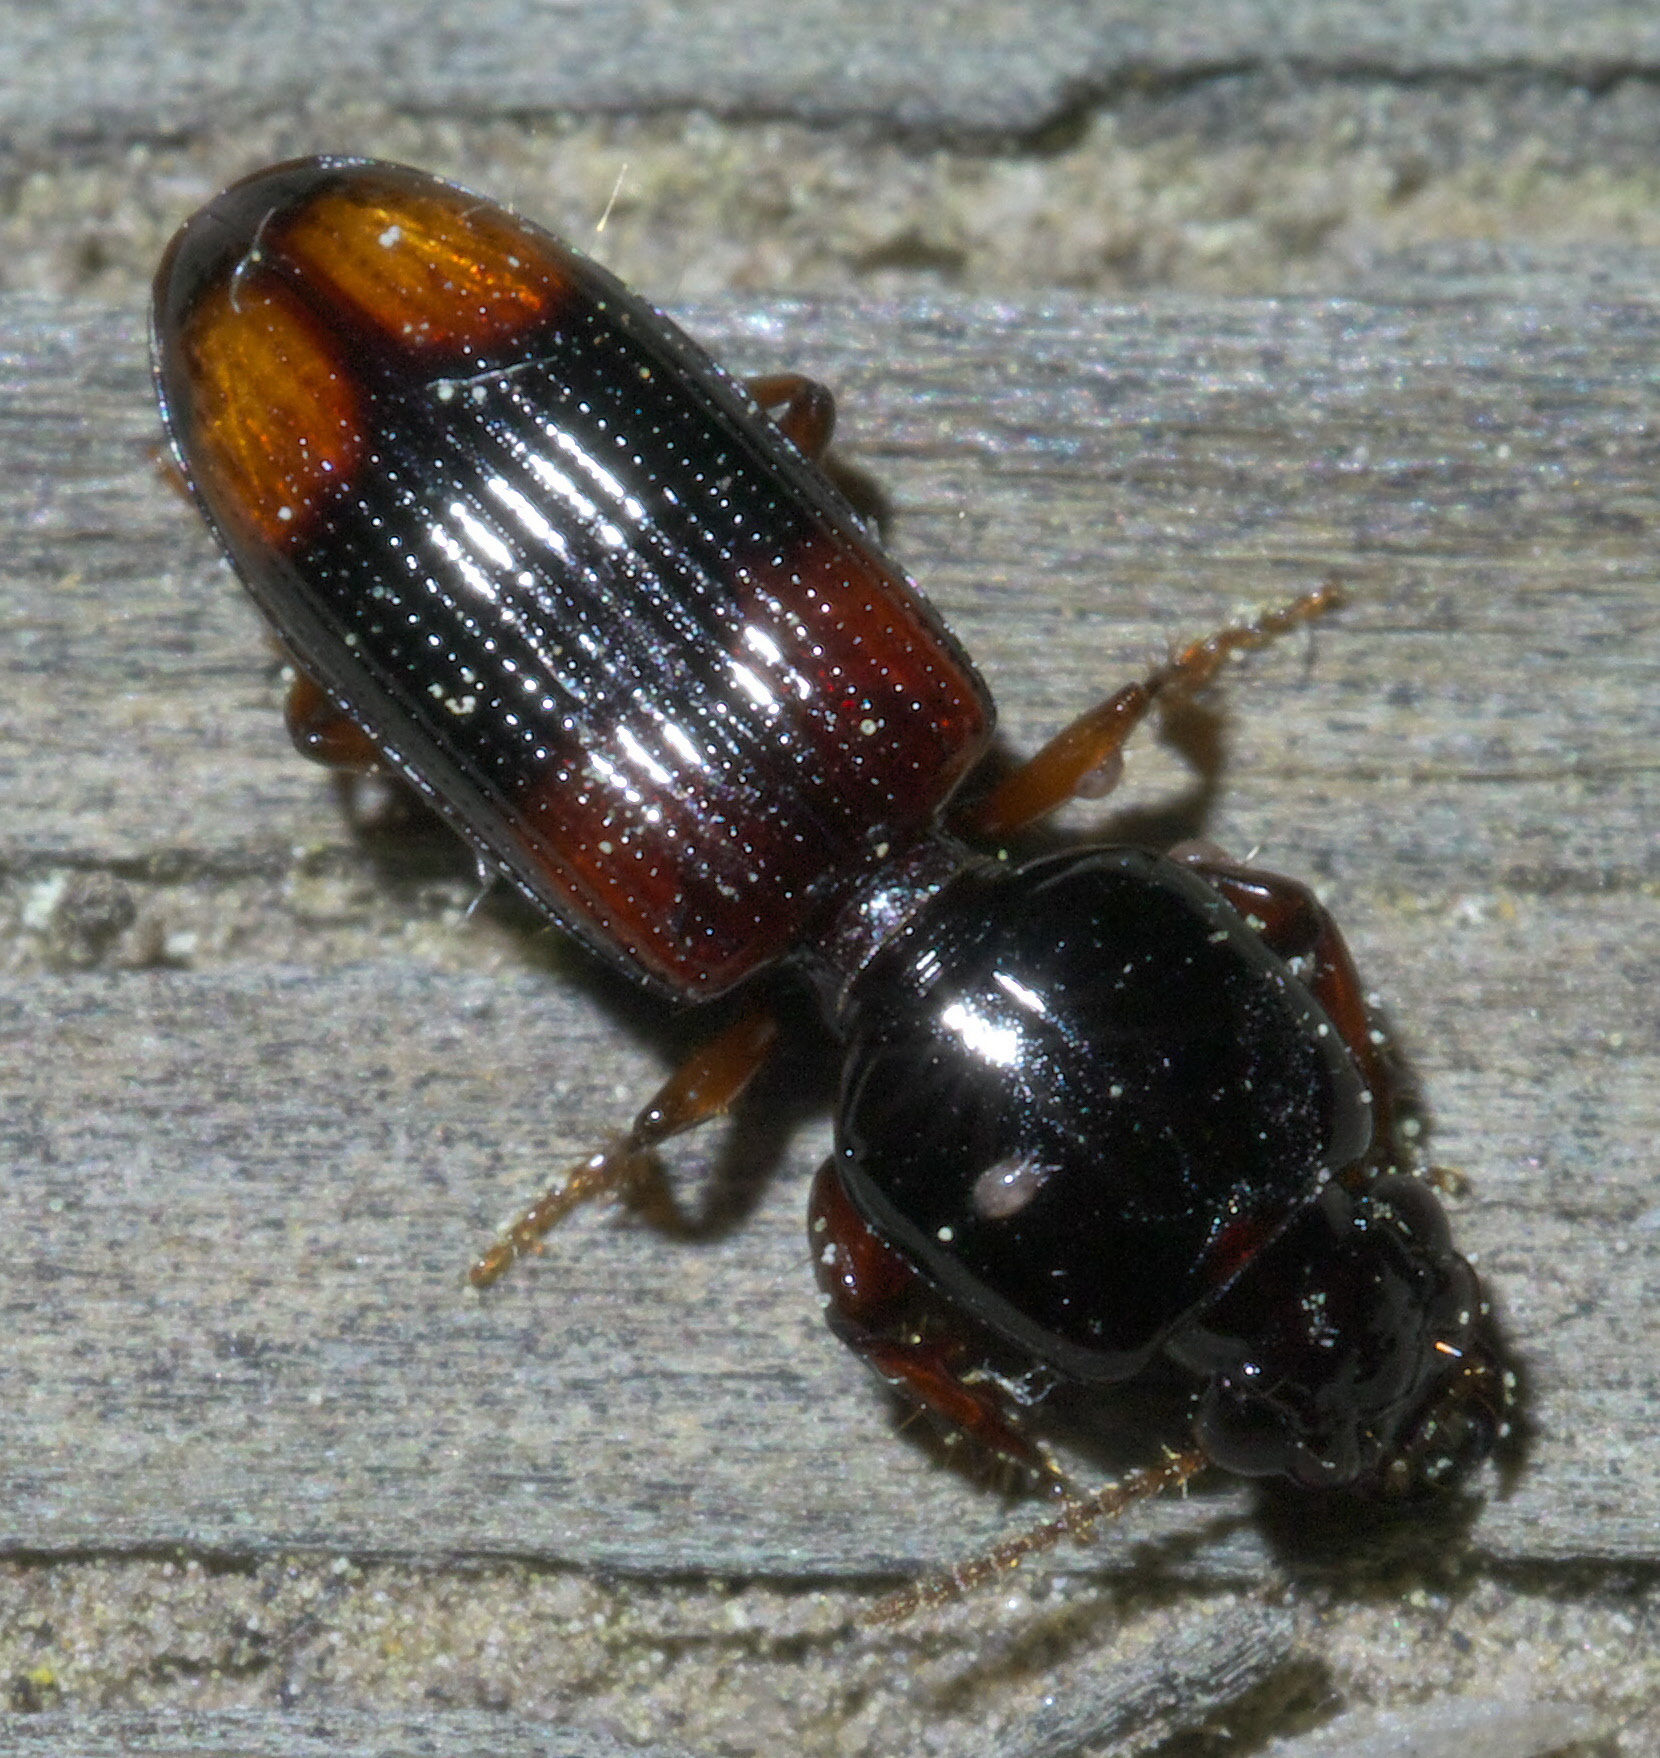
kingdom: Animalia
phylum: Arthropoda
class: Insecta
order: Coleoptera
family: Carabidae
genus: Clivina
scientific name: Clivina bipustulata
